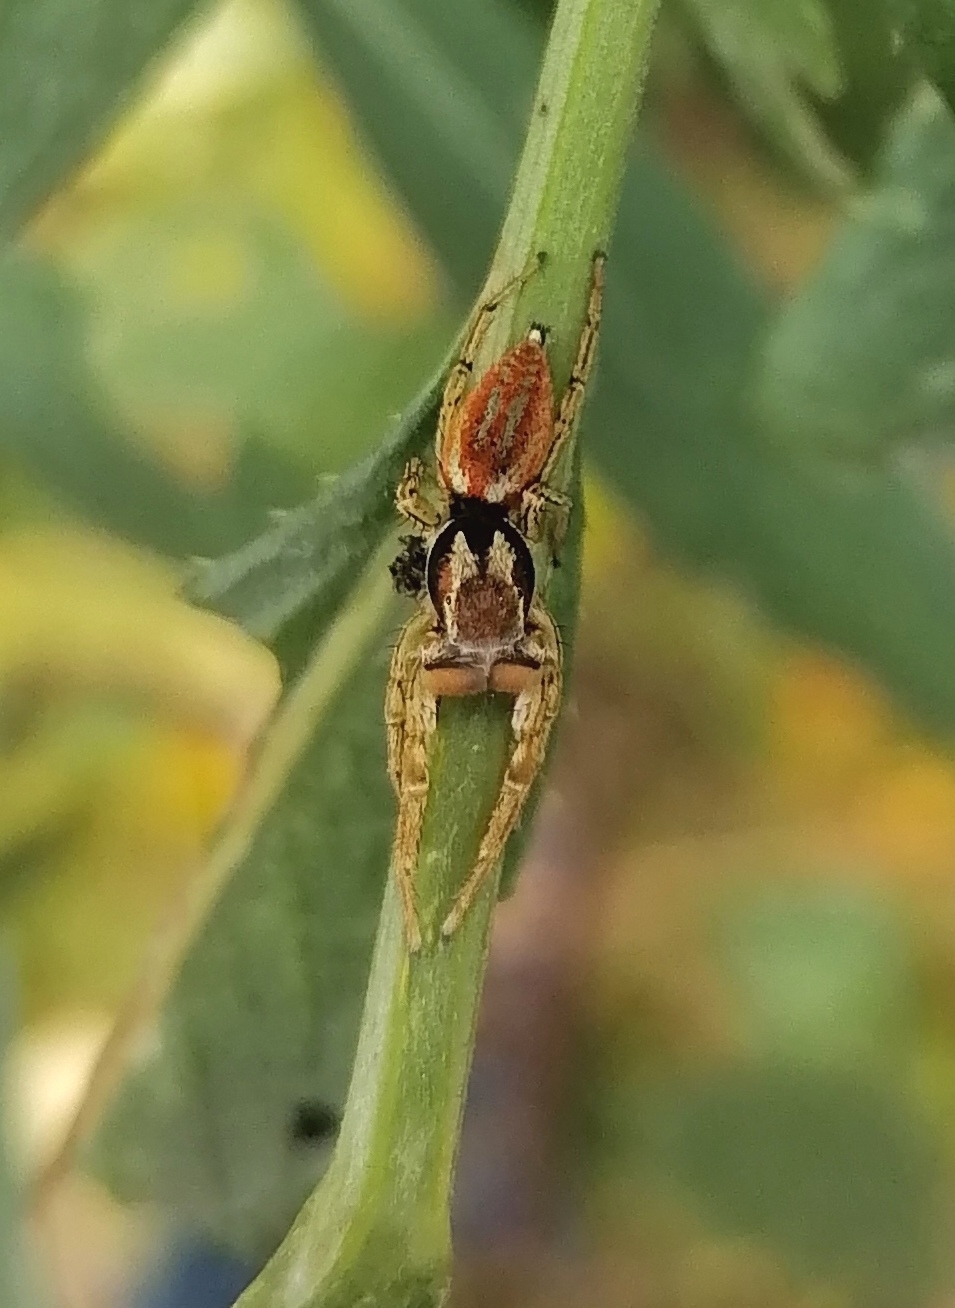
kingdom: Animalia
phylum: Arthropoda
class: Arachnida
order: Araneae
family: Salticidae
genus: Marpissa
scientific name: Marpissa pomatia
